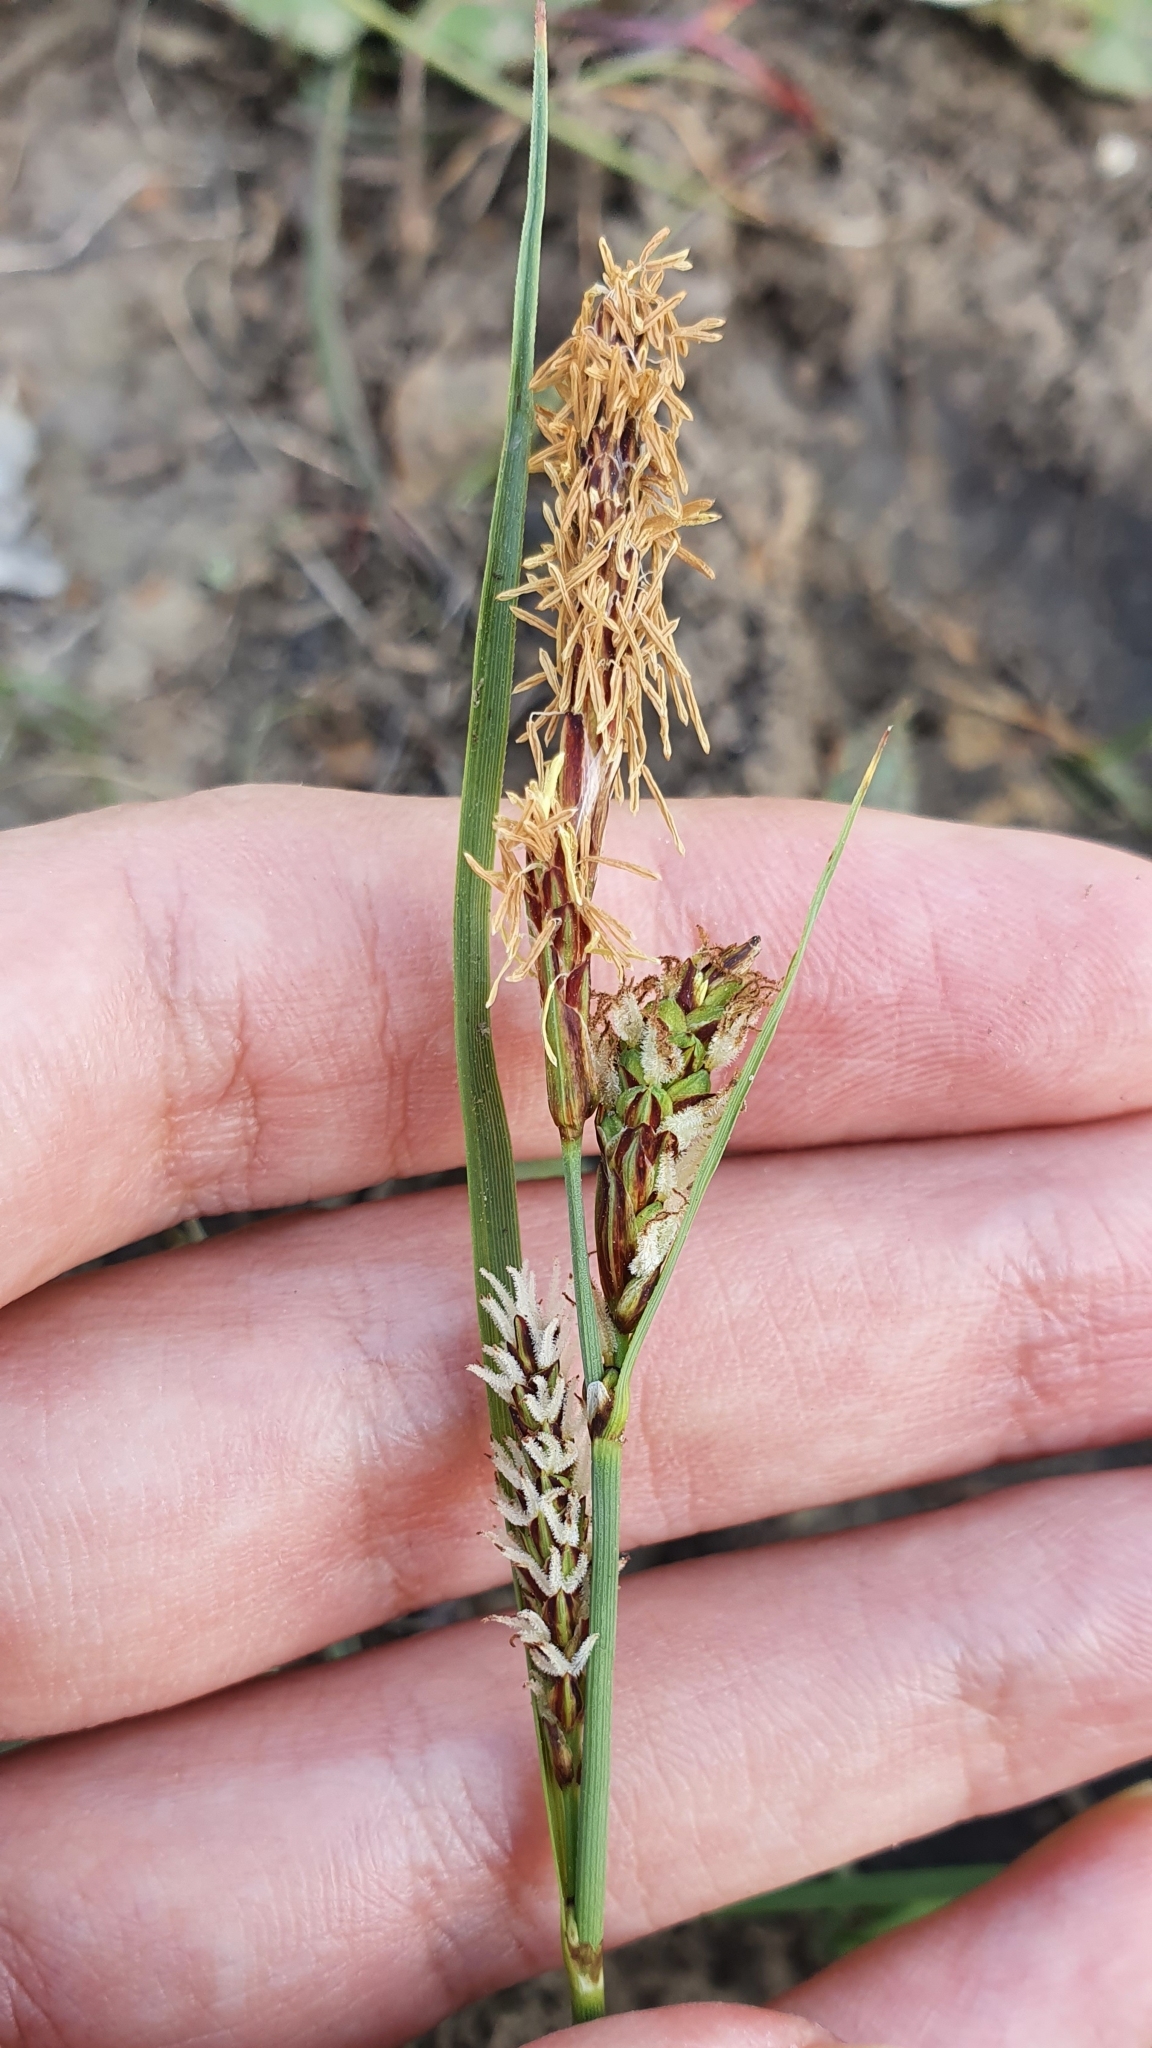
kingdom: Plantae
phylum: Tracheophyta
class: Liliopsida
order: Poales
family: Cyperaceae
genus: Carex
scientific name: Carex flacca
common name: Glaucous sedge
